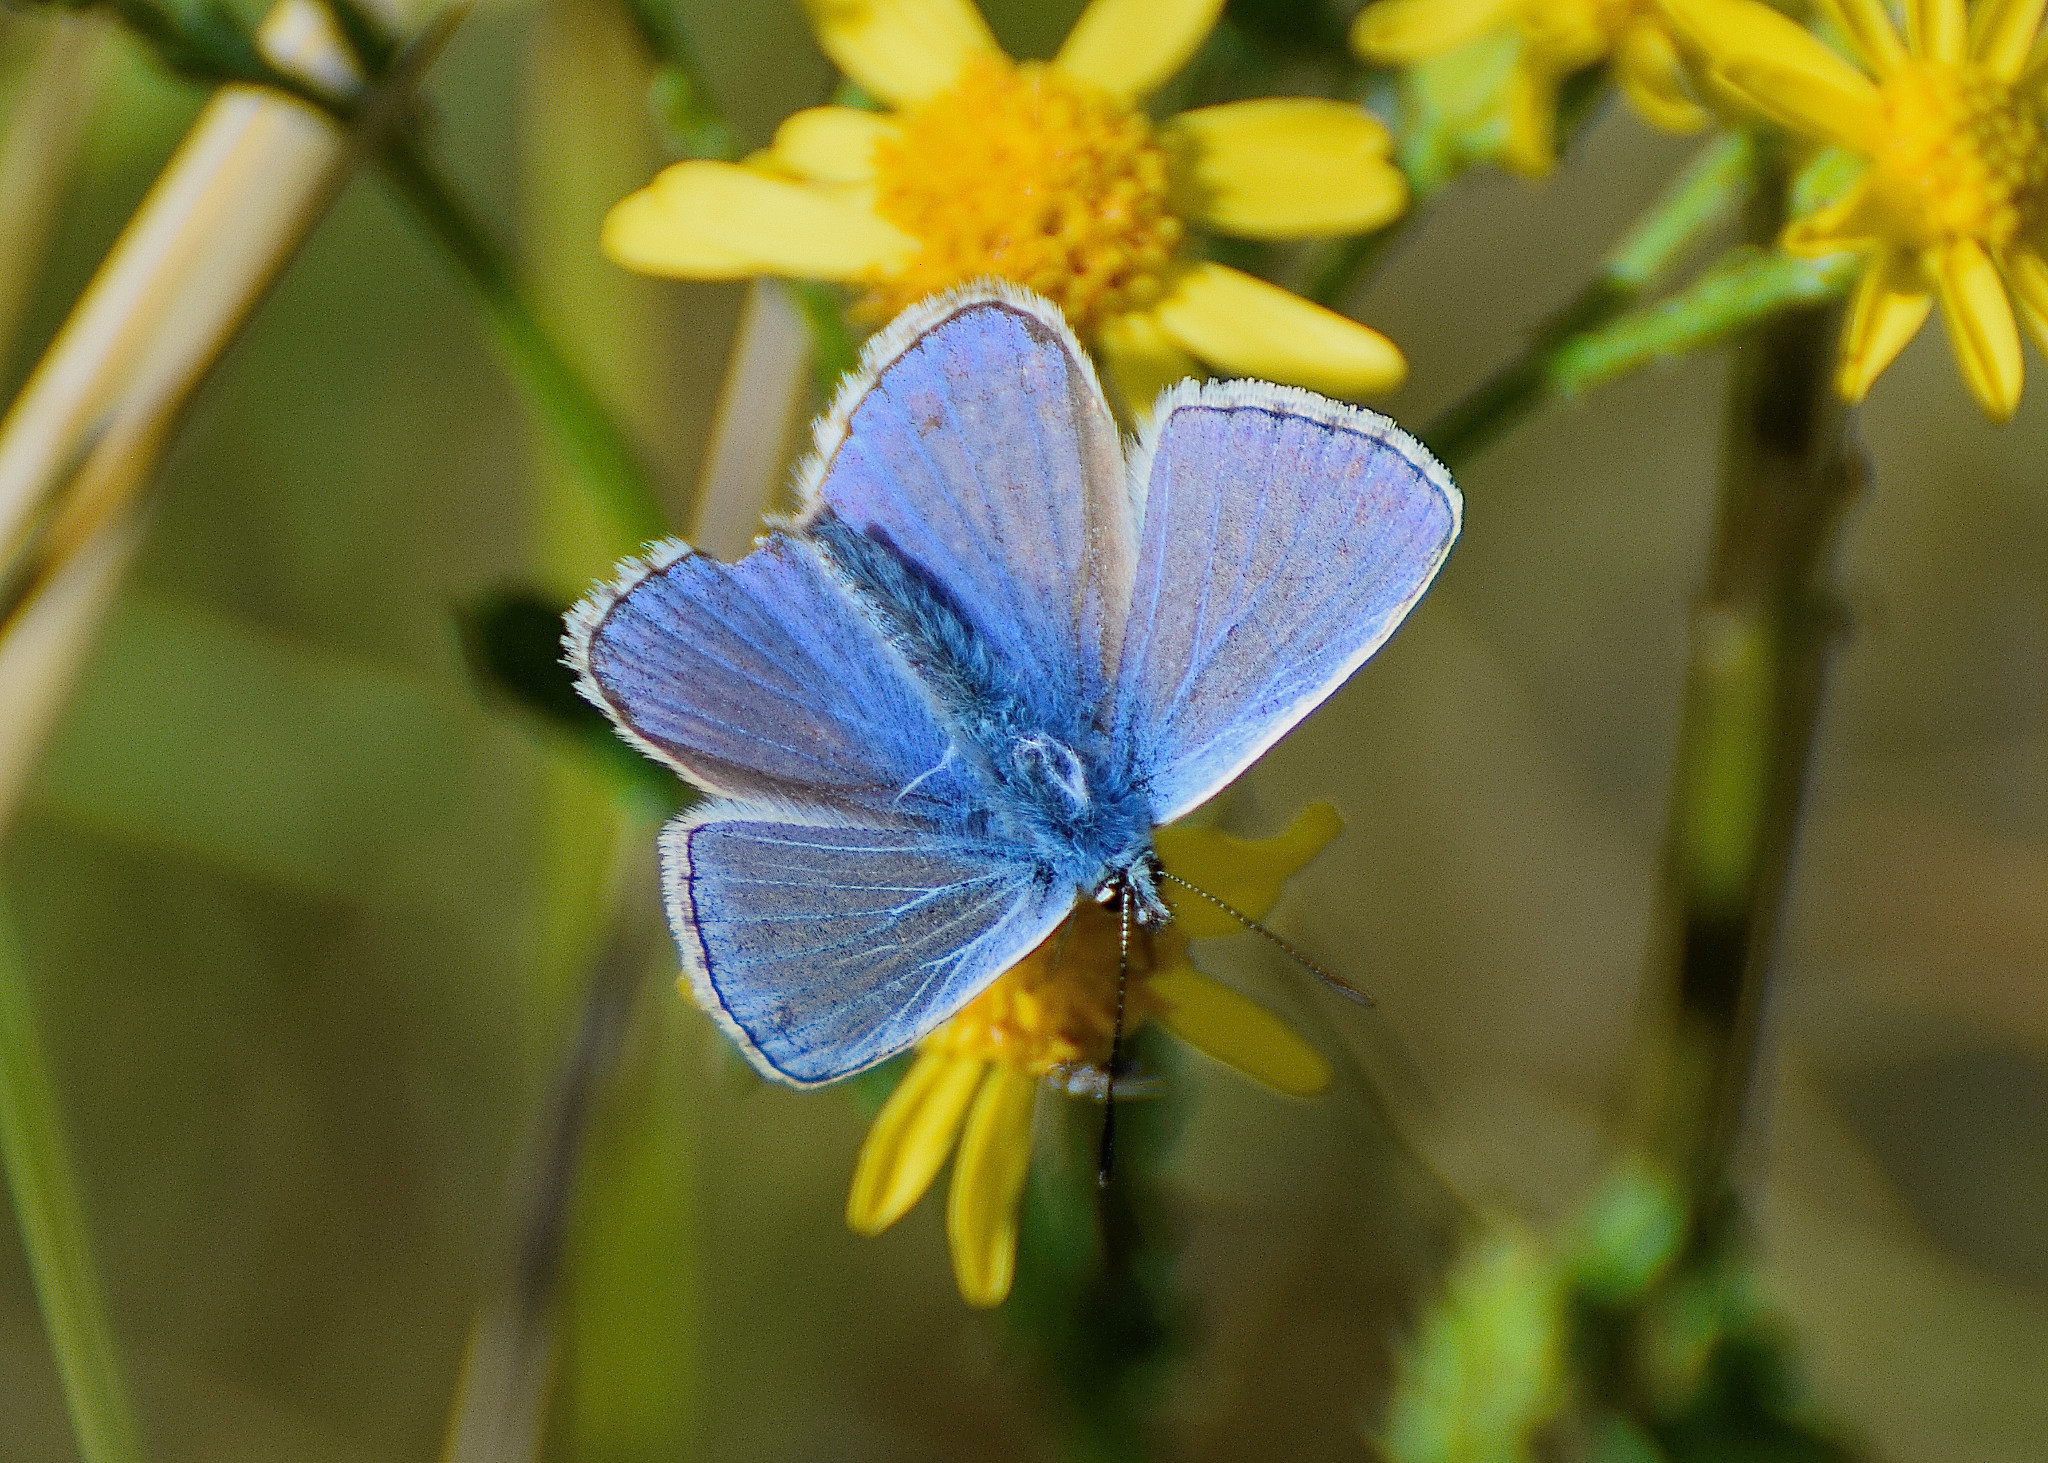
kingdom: Animalia
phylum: Arthropoda
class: Insecta
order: Lepidoptera
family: Lycaenidae
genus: Polyommatus
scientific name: Polyommatus icarus
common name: Common blue
